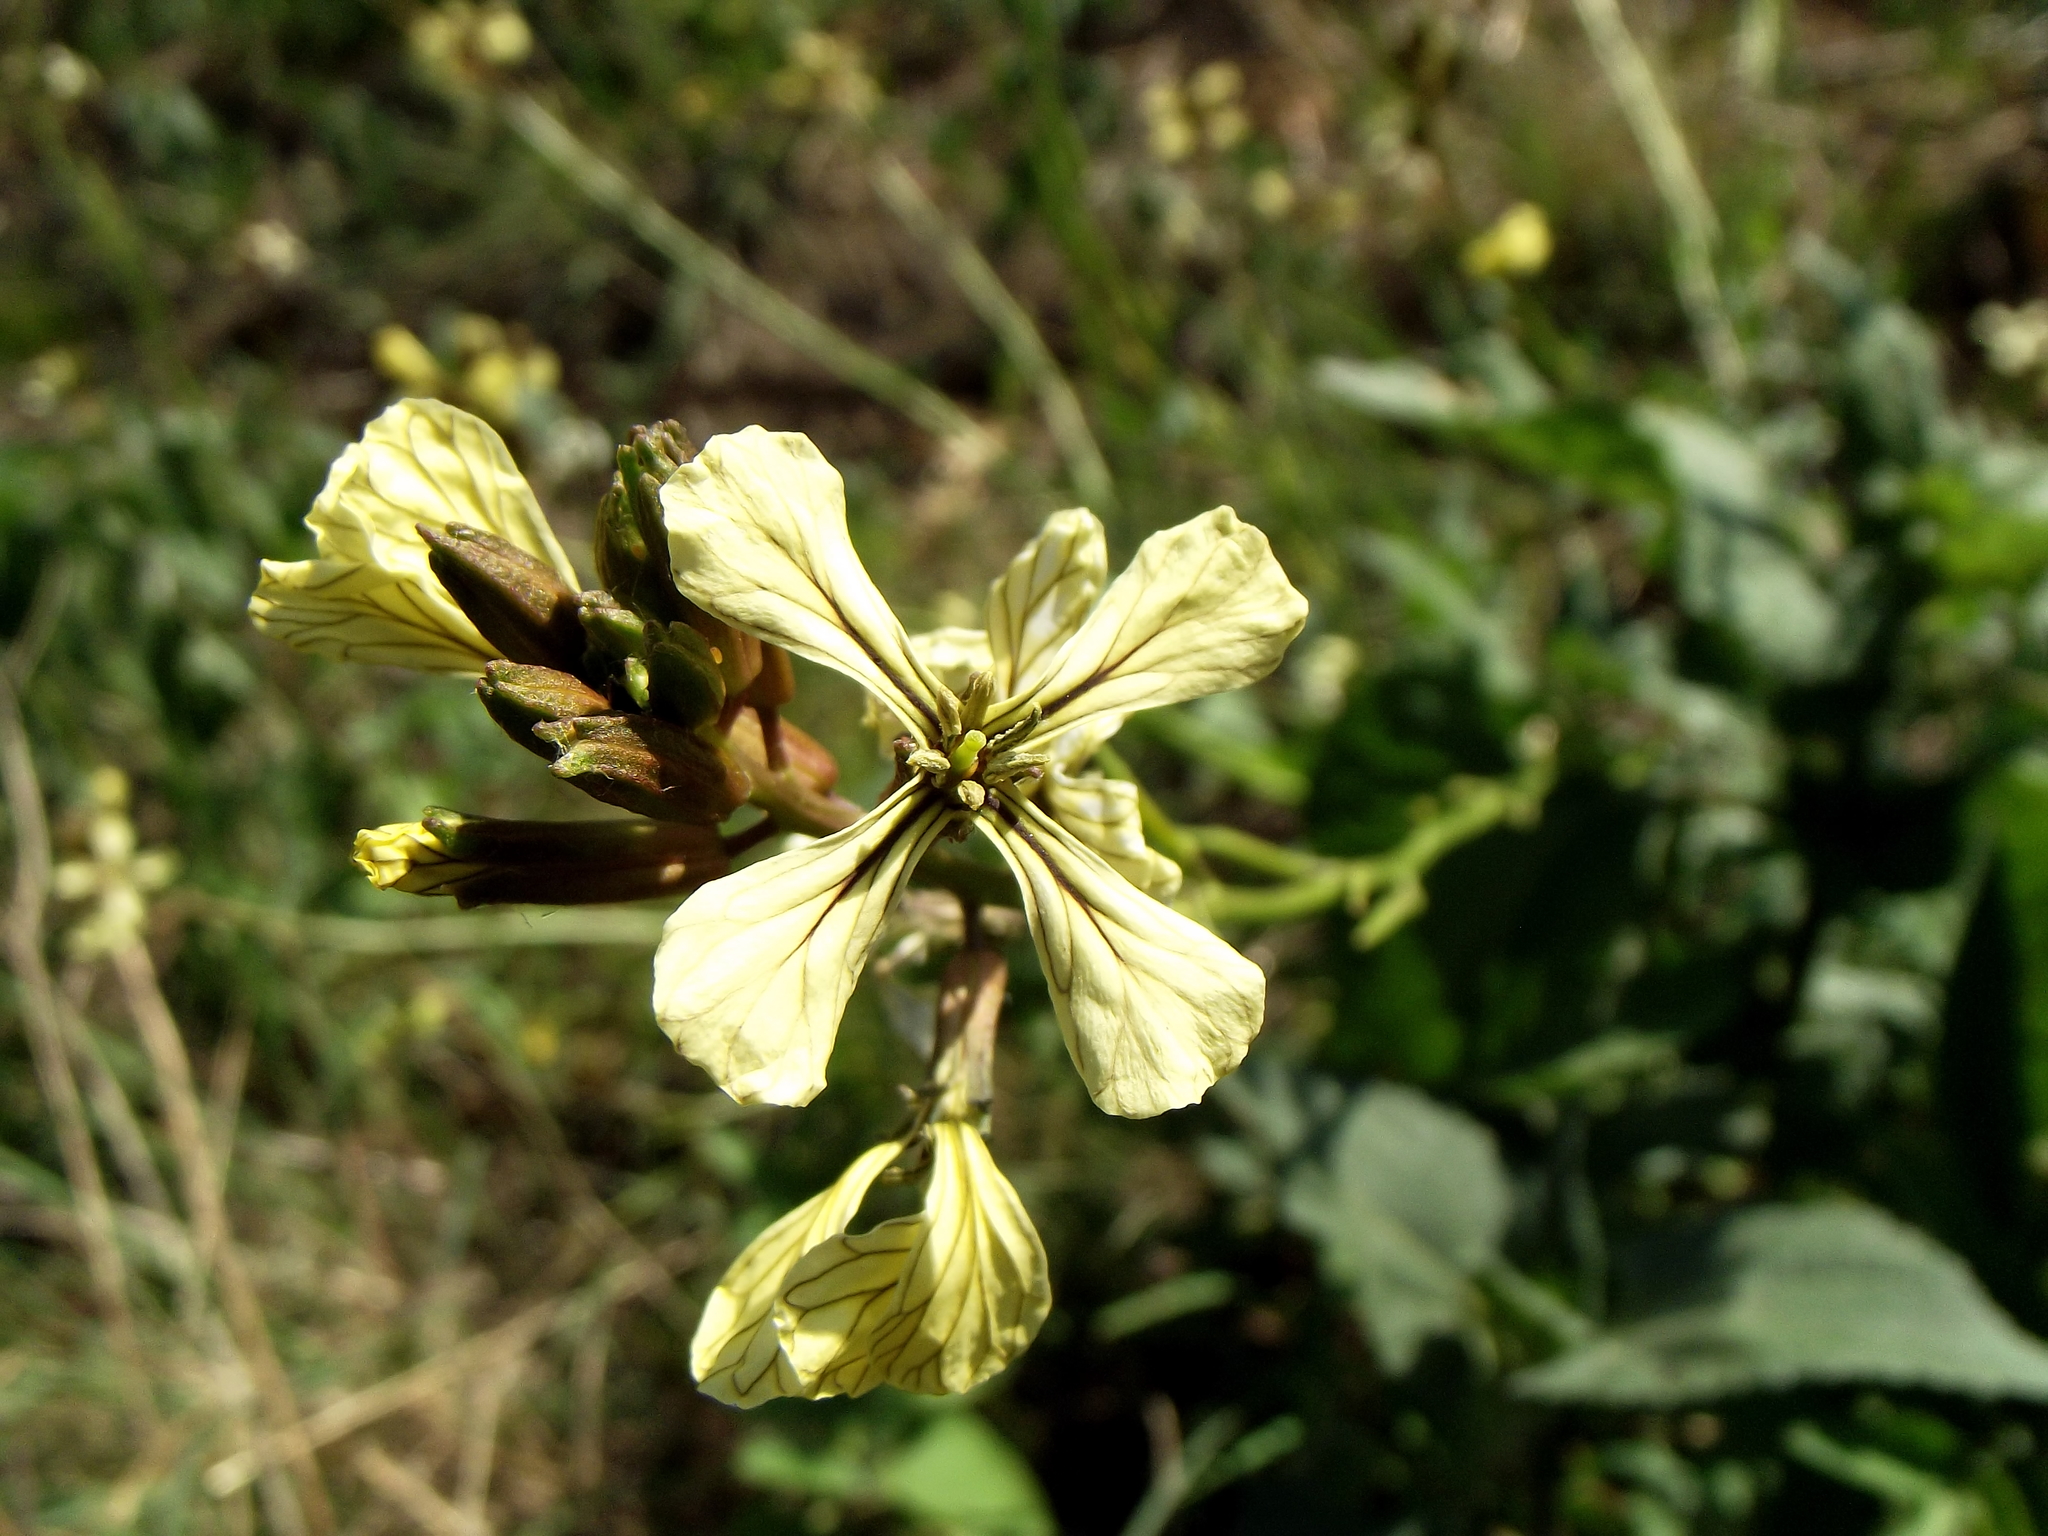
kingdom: Plantae
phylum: Tracheophyta
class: Magnoliopsida
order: Brassicales
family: Brassicaceae
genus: Eruca
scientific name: Eruca vesicaria
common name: Garden rocket
